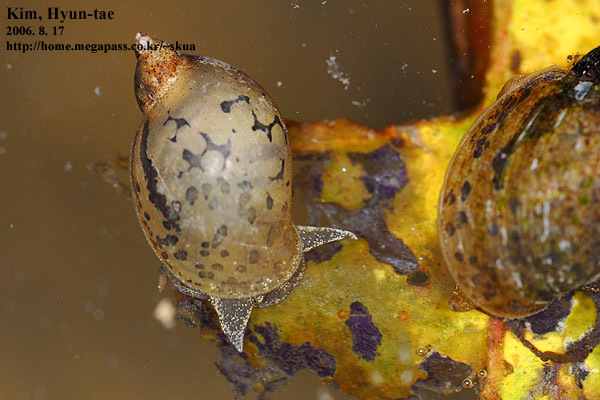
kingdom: Animalia
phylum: Mollusca
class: Gastropoda
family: Lymnaeidae
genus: Radix
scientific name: Radix auricularia
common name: Ear pond snail
